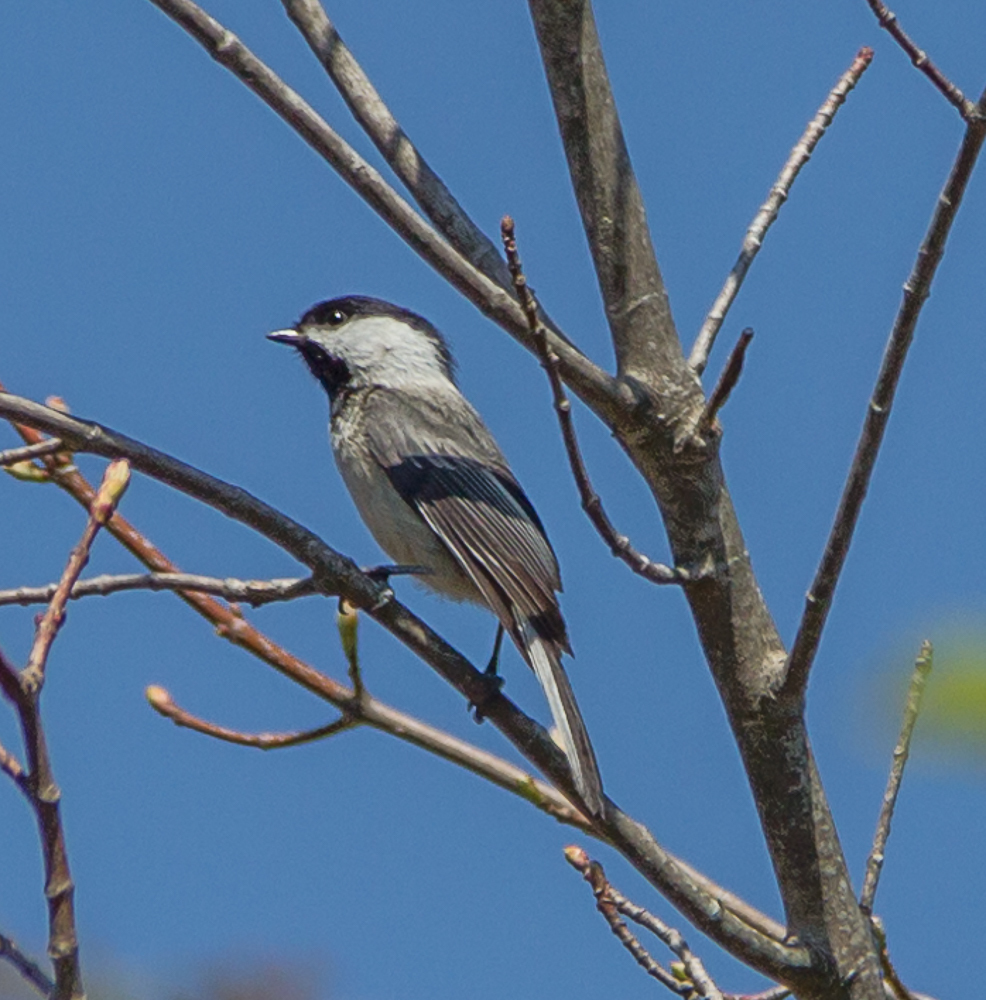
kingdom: Animalia
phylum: Chordata
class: Aves
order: Passeriformes
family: Paridae
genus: Poecile
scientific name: Poecile atricapillus
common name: Black-capped chickadee
